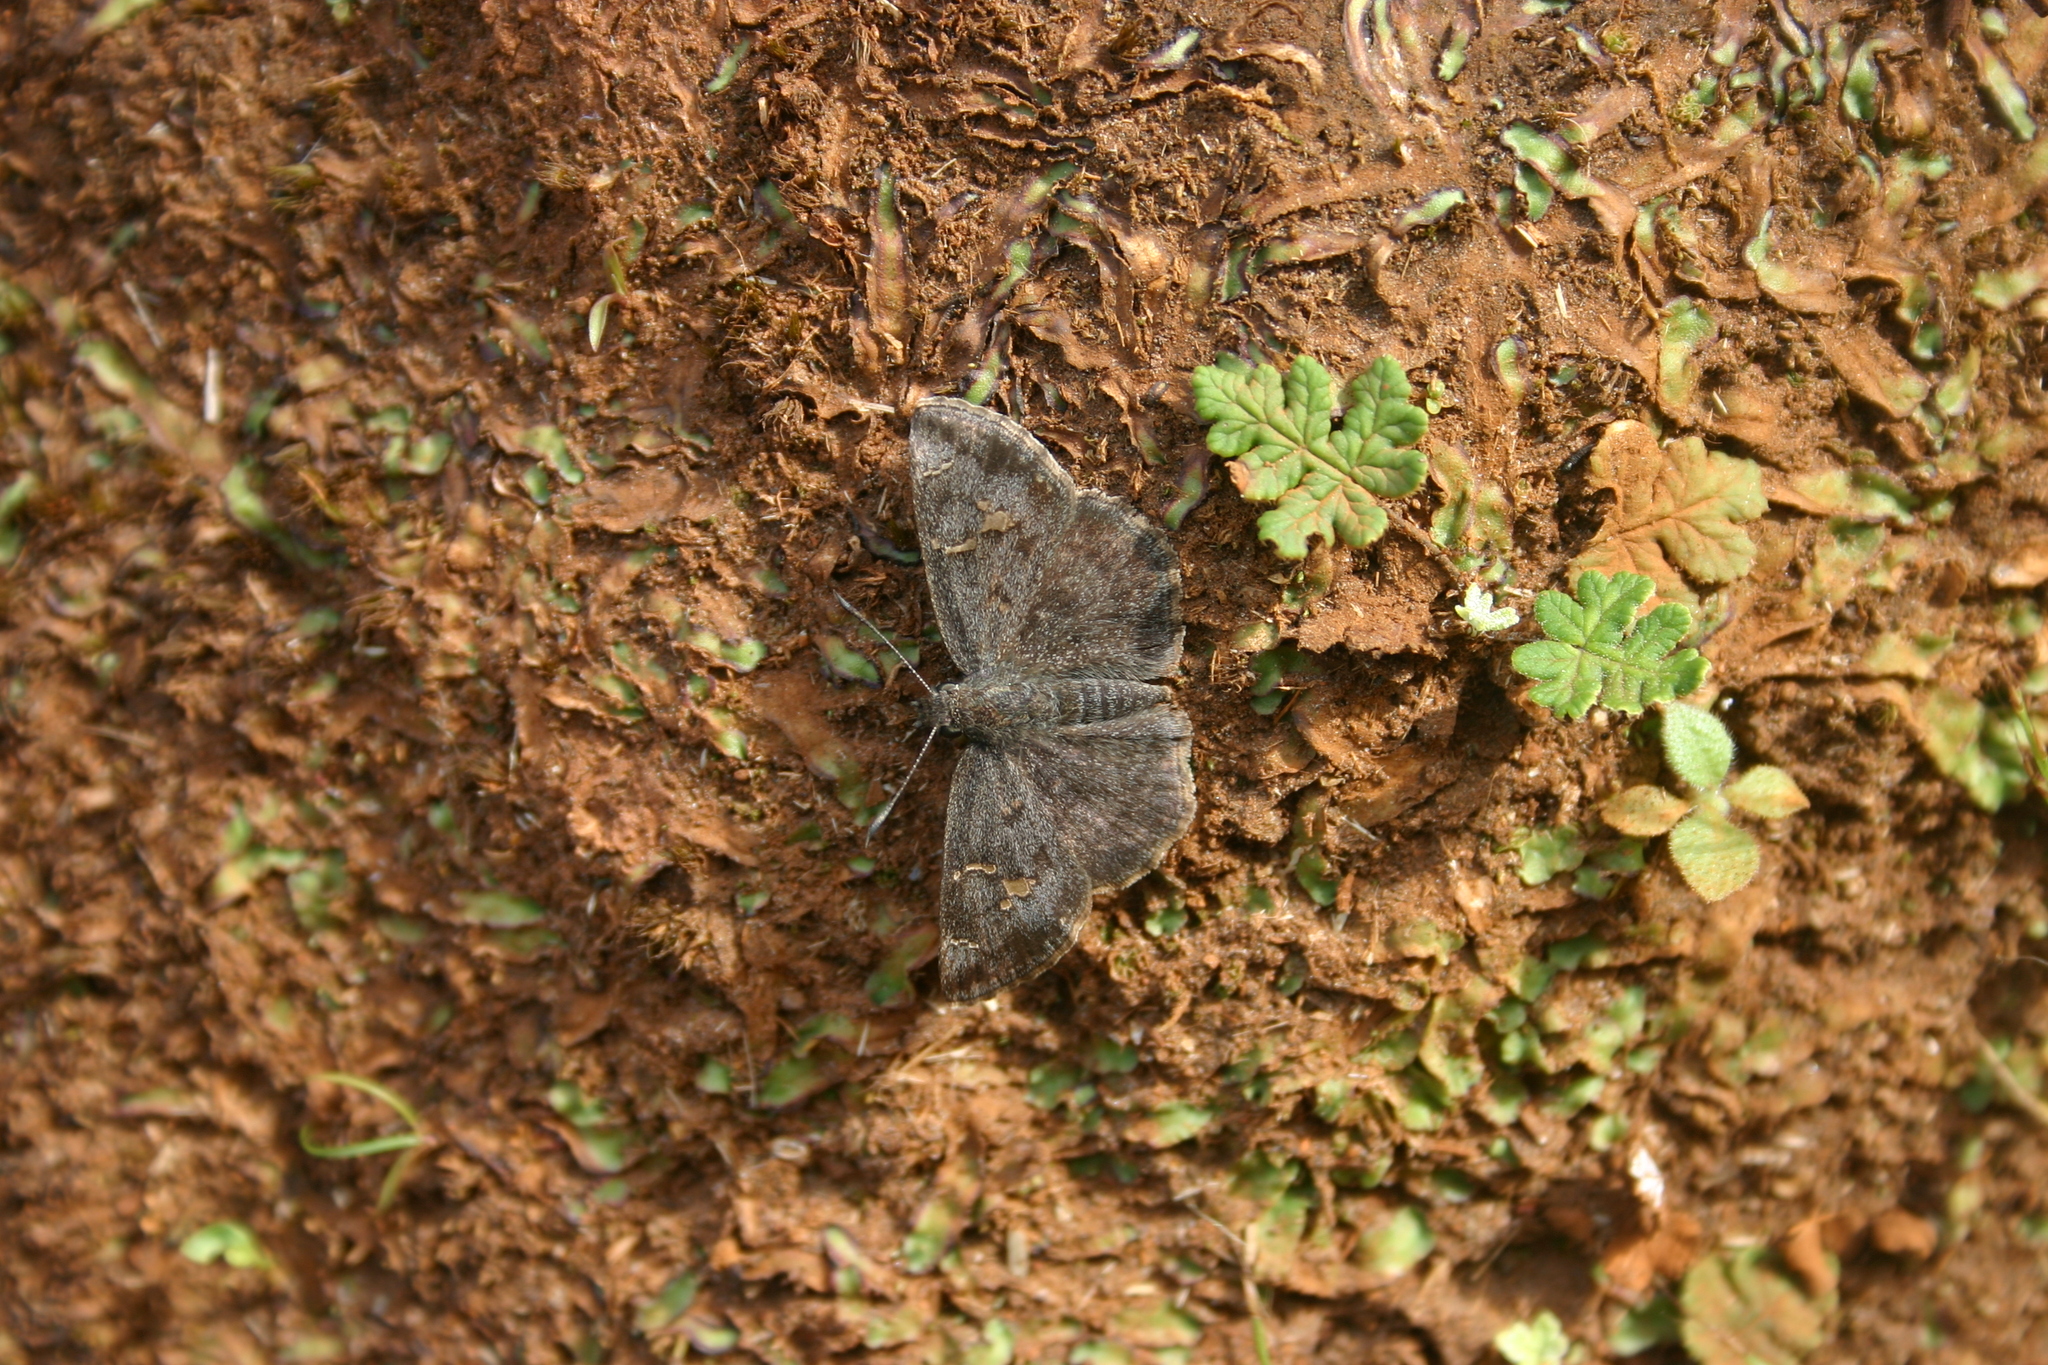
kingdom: Animalia
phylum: Arthropoda
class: Insecta
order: Lepidoptera
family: Hesperiidae
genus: Sarangesa
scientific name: Sarangesa purendra
